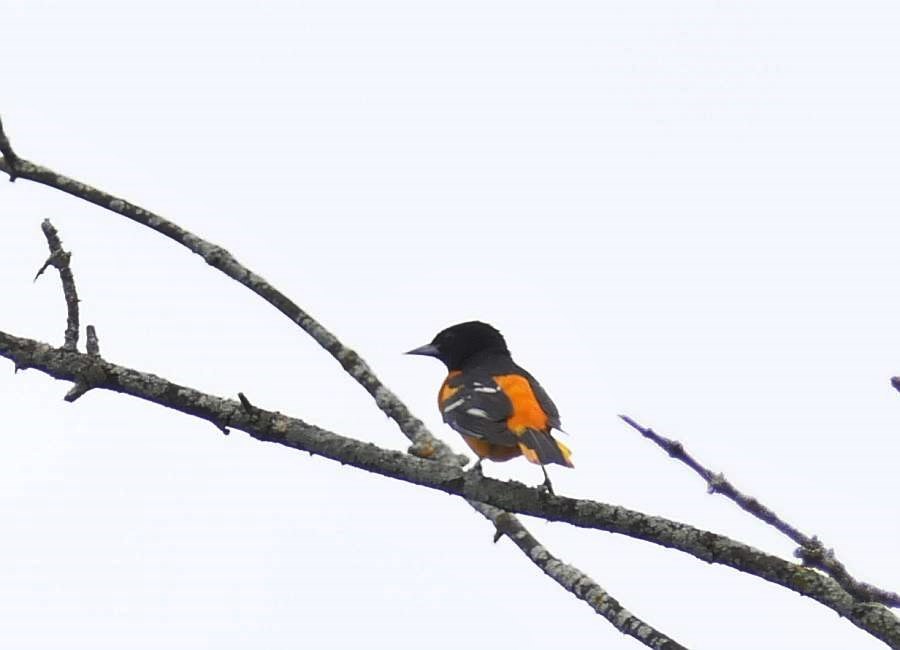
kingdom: Animalia
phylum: Chordata
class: Aves
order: Passeriformes
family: Icteridae
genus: Icterus
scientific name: Icterus galbula
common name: Baltimore oriole
